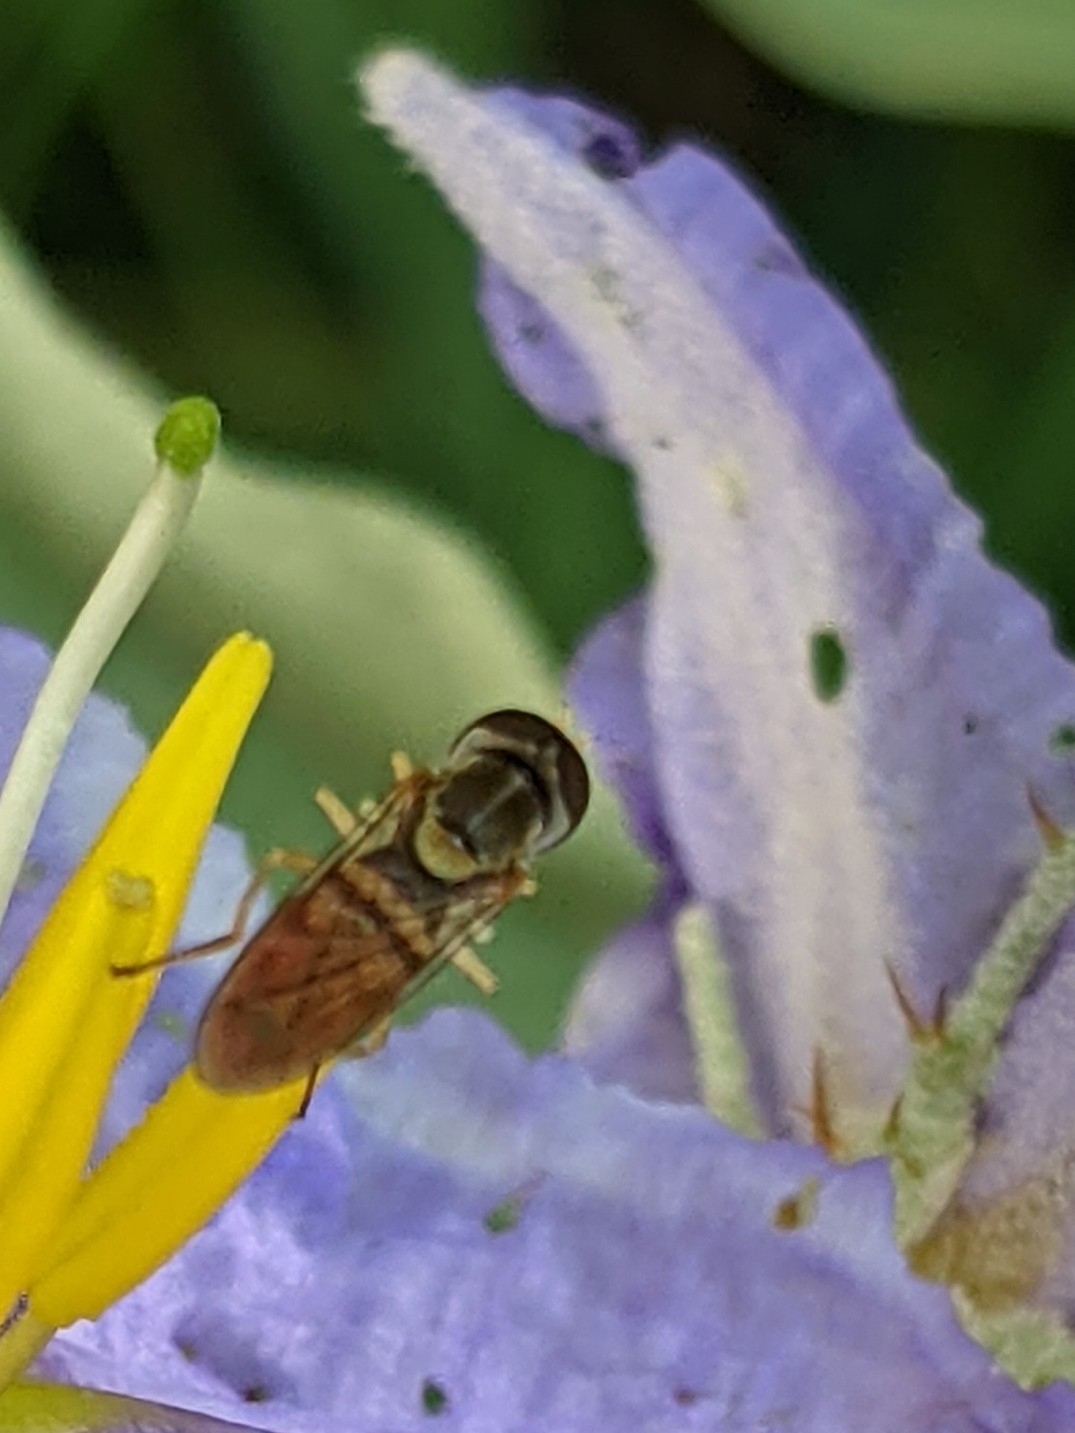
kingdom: Animalia
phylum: Arthropoda
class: Insecta
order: Diptera
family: Syrphidae
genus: Toxomerus
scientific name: Toxomerus marginatus
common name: Syrphid fly
